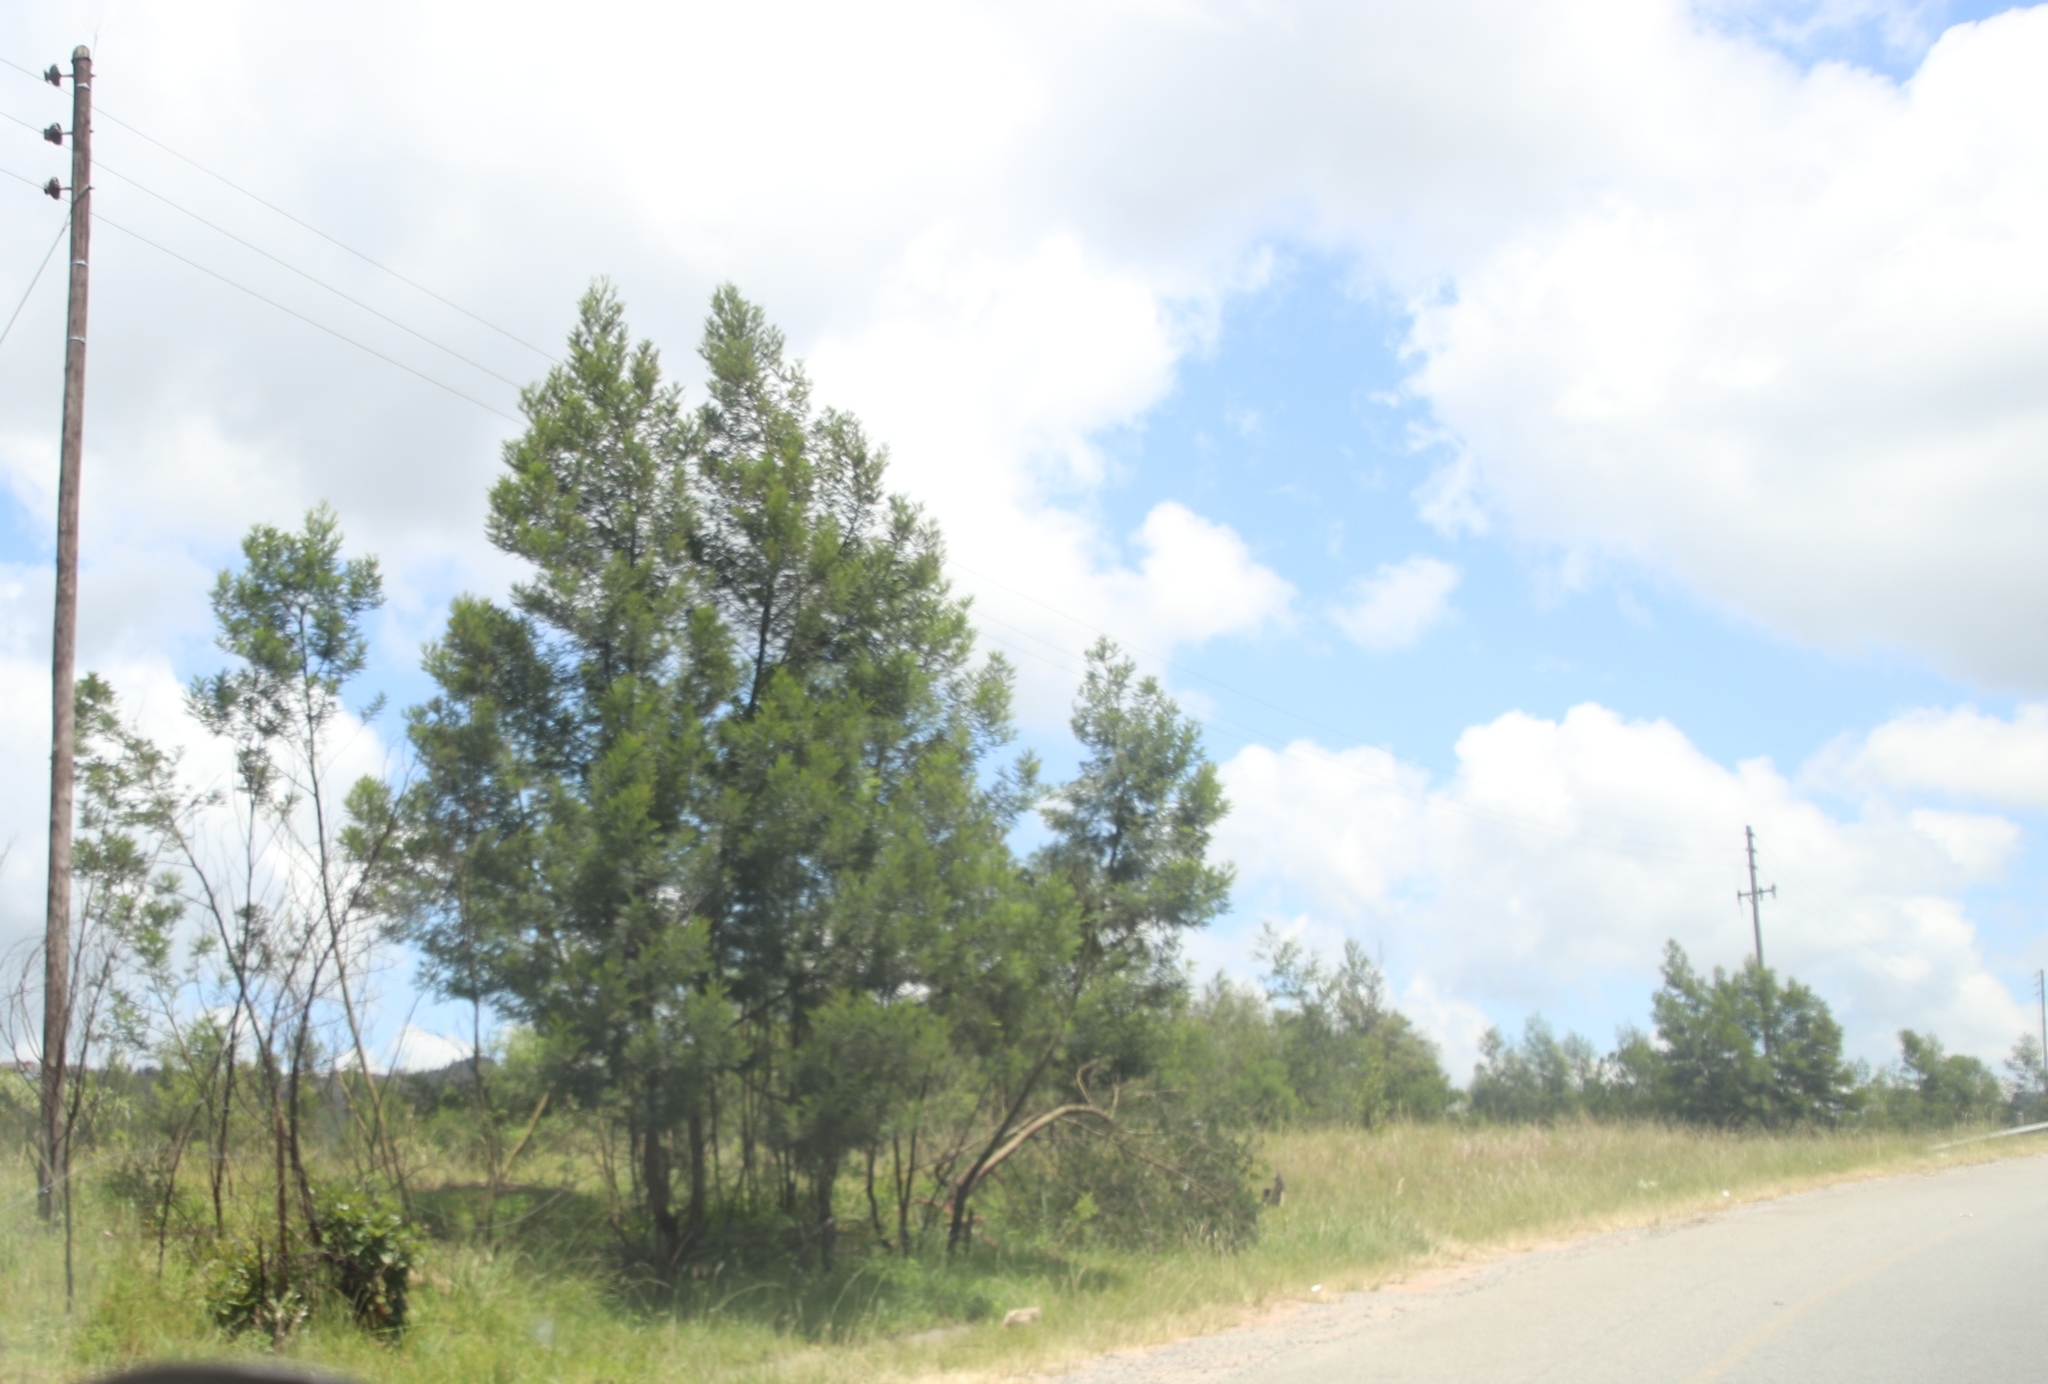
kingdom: Plantae
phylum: Tracheophyta
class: Magnoliopsida
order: Fabales
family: Fabaceae
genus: Acacia
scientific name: Acacia dealbata
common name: Silver wattle
